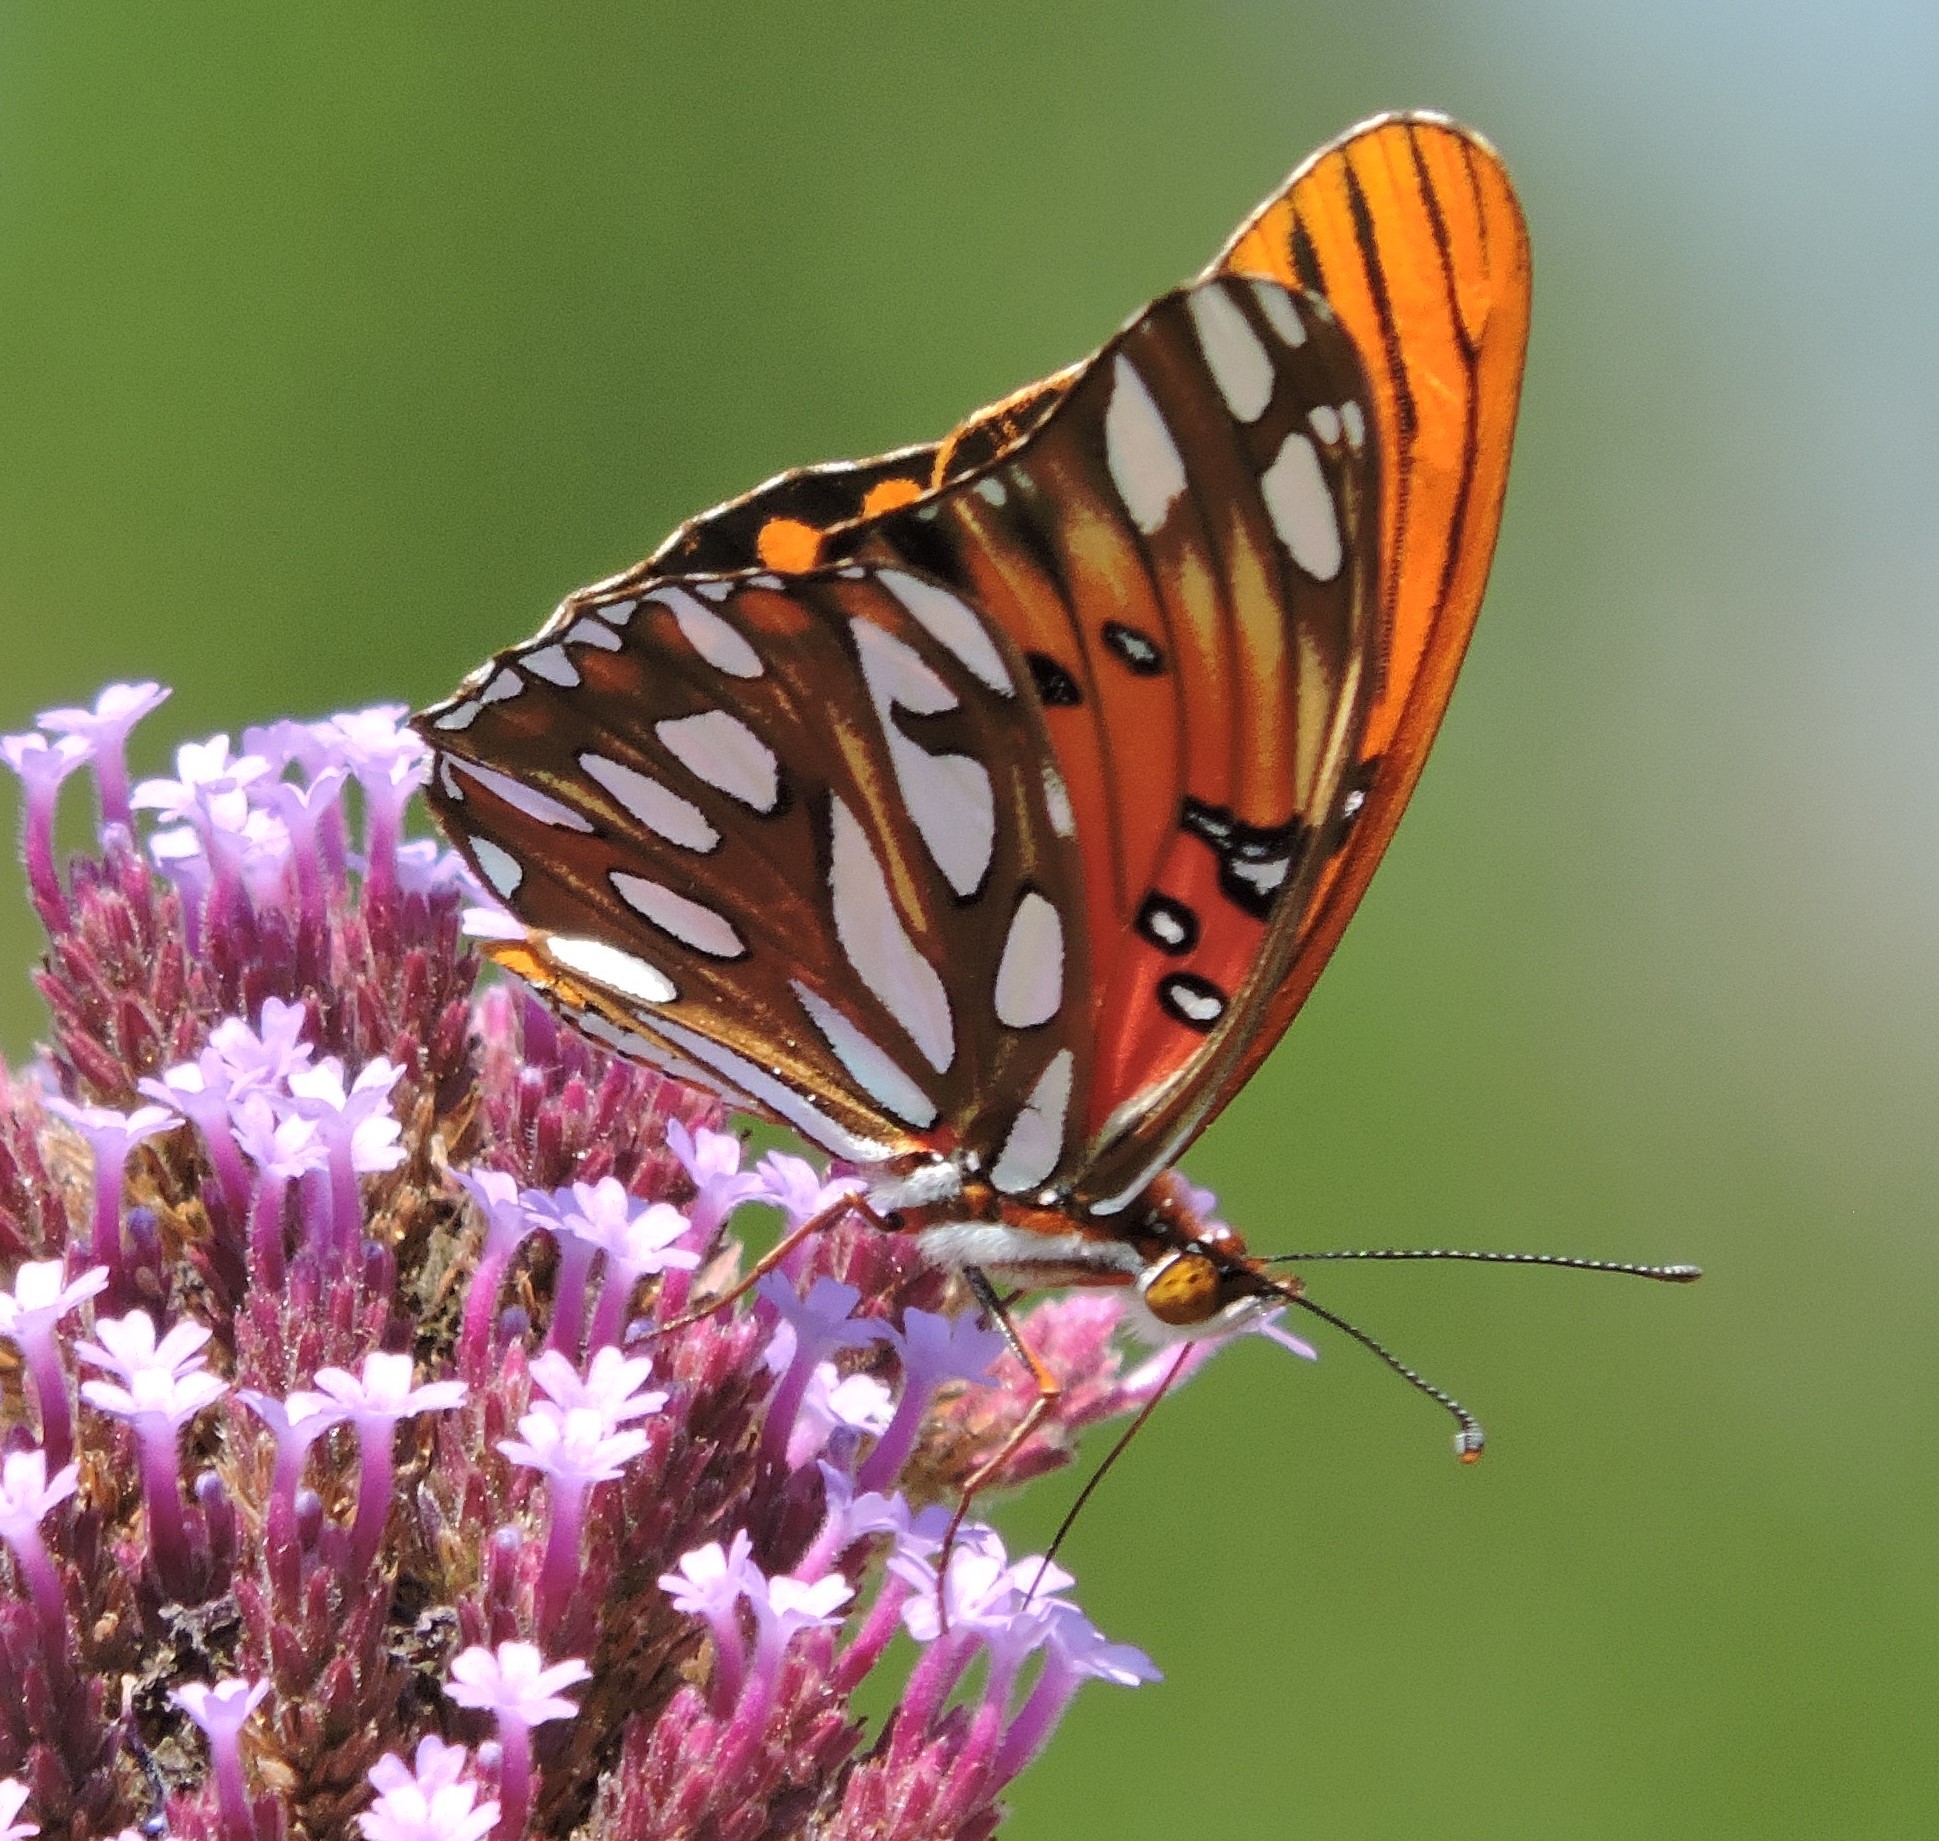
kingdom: Animalia
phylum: Arthropoda
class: Insecta
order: Lepidoptera
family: Nymphalidae
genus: Dione
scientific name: Dione vanillae
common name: Gulf fritillary
